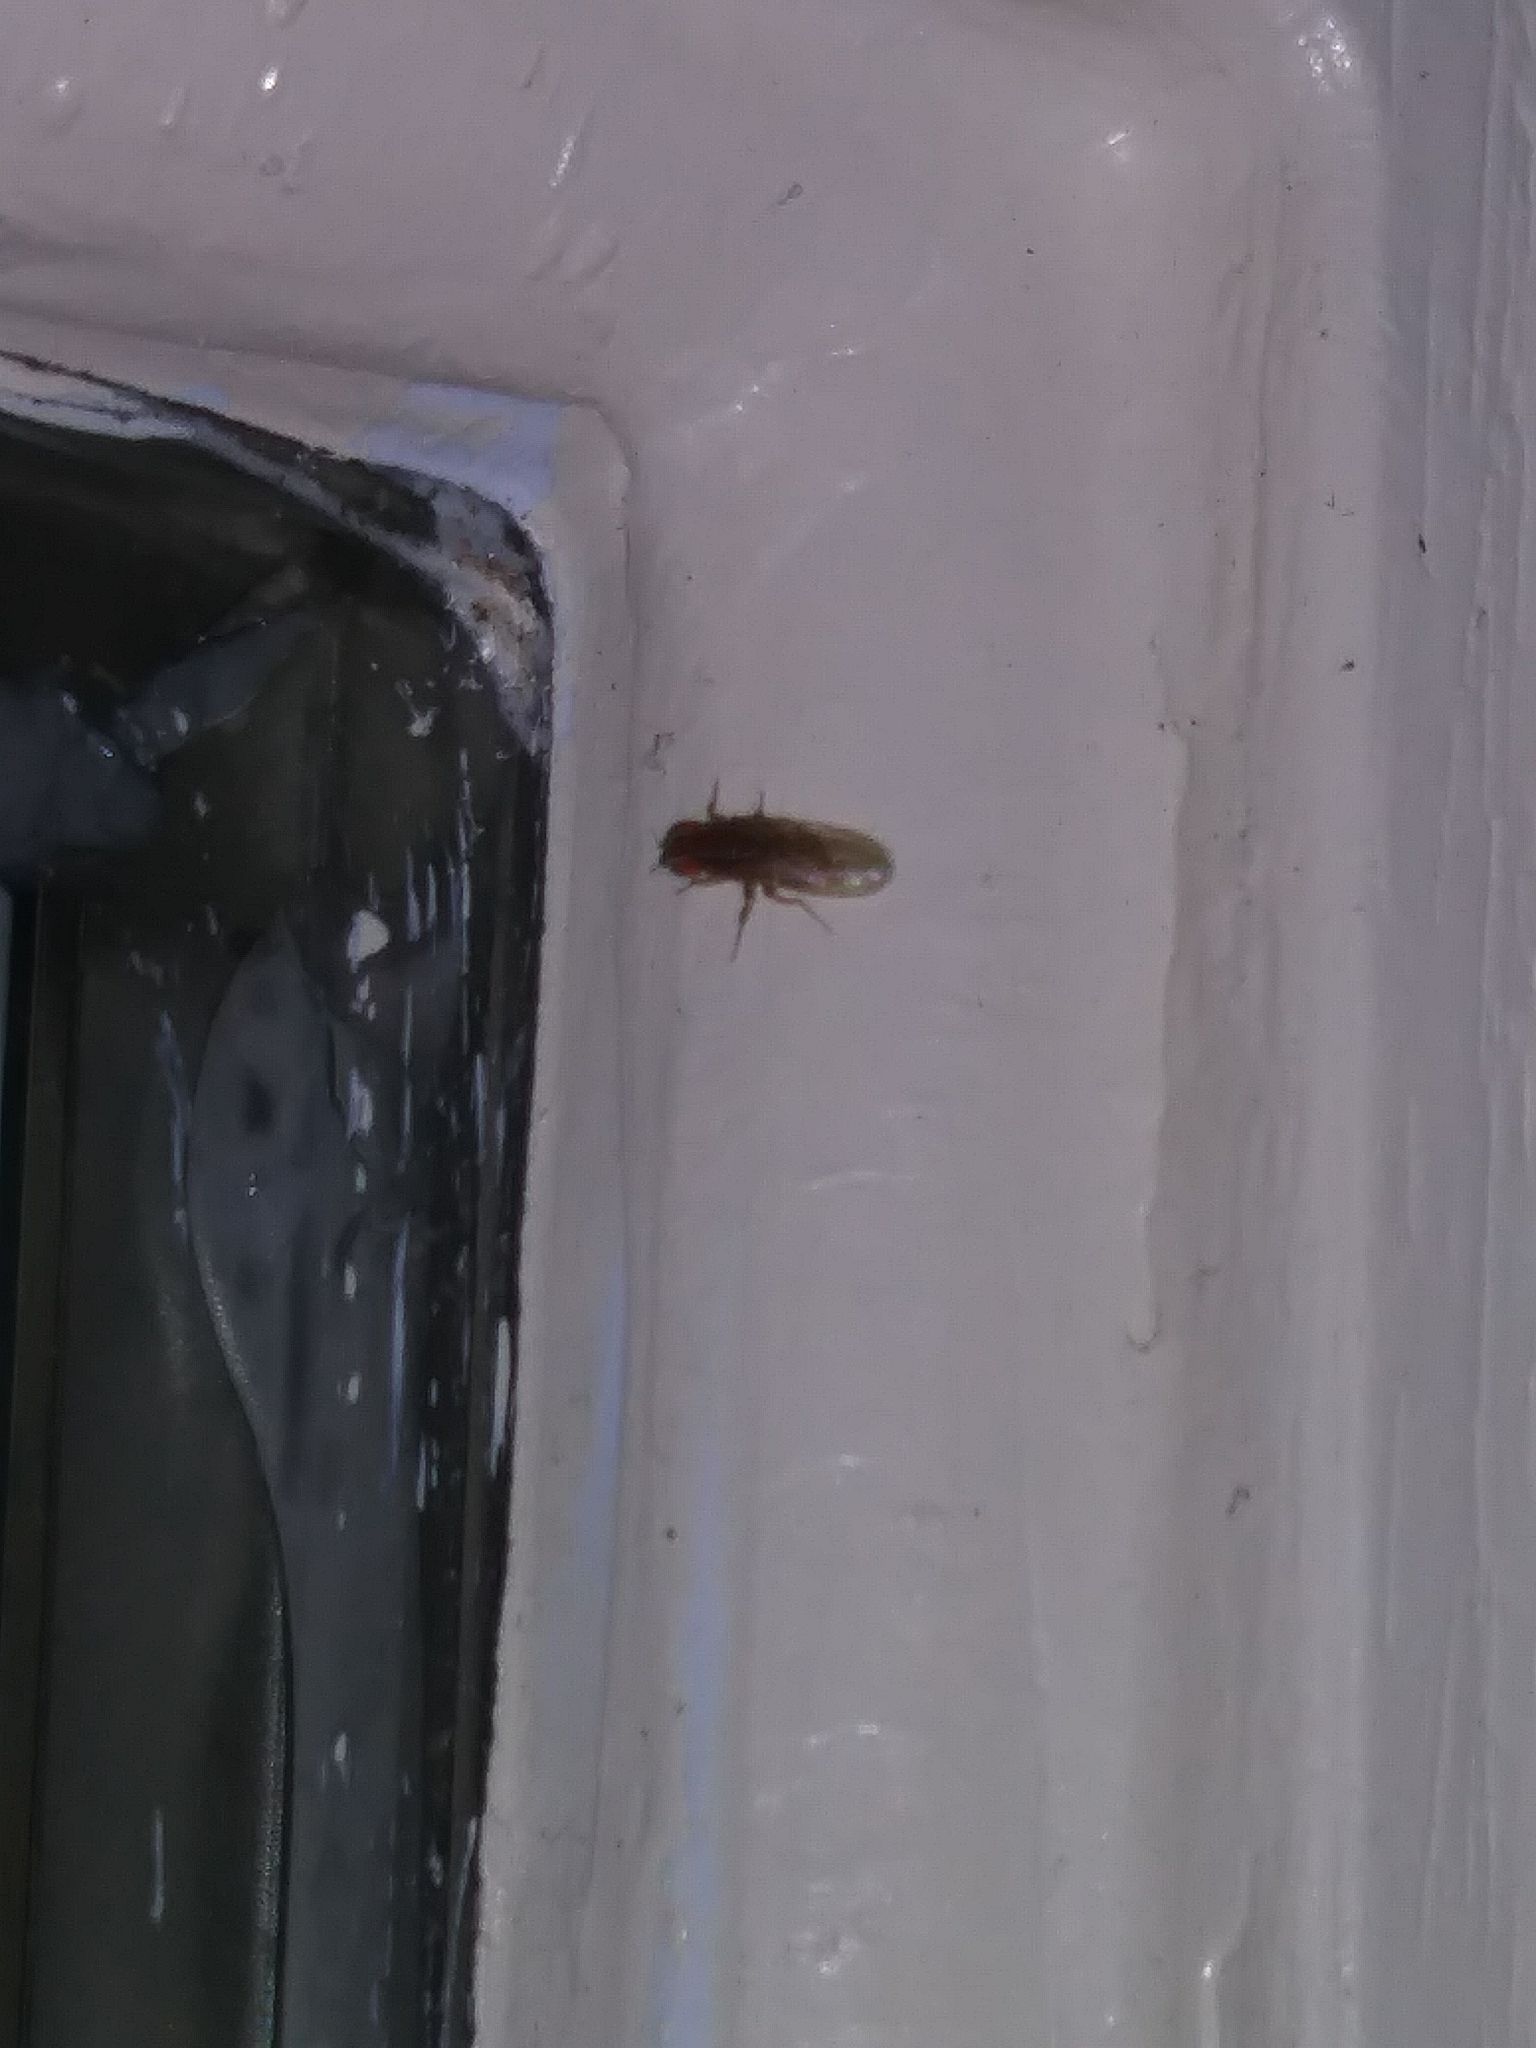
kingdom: Animalia
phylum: Arthropoda
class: Insecta
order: Diptera
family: Drosophilidae
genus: Zaprionus
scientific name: Zaprionus indianus
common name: African fig fly
